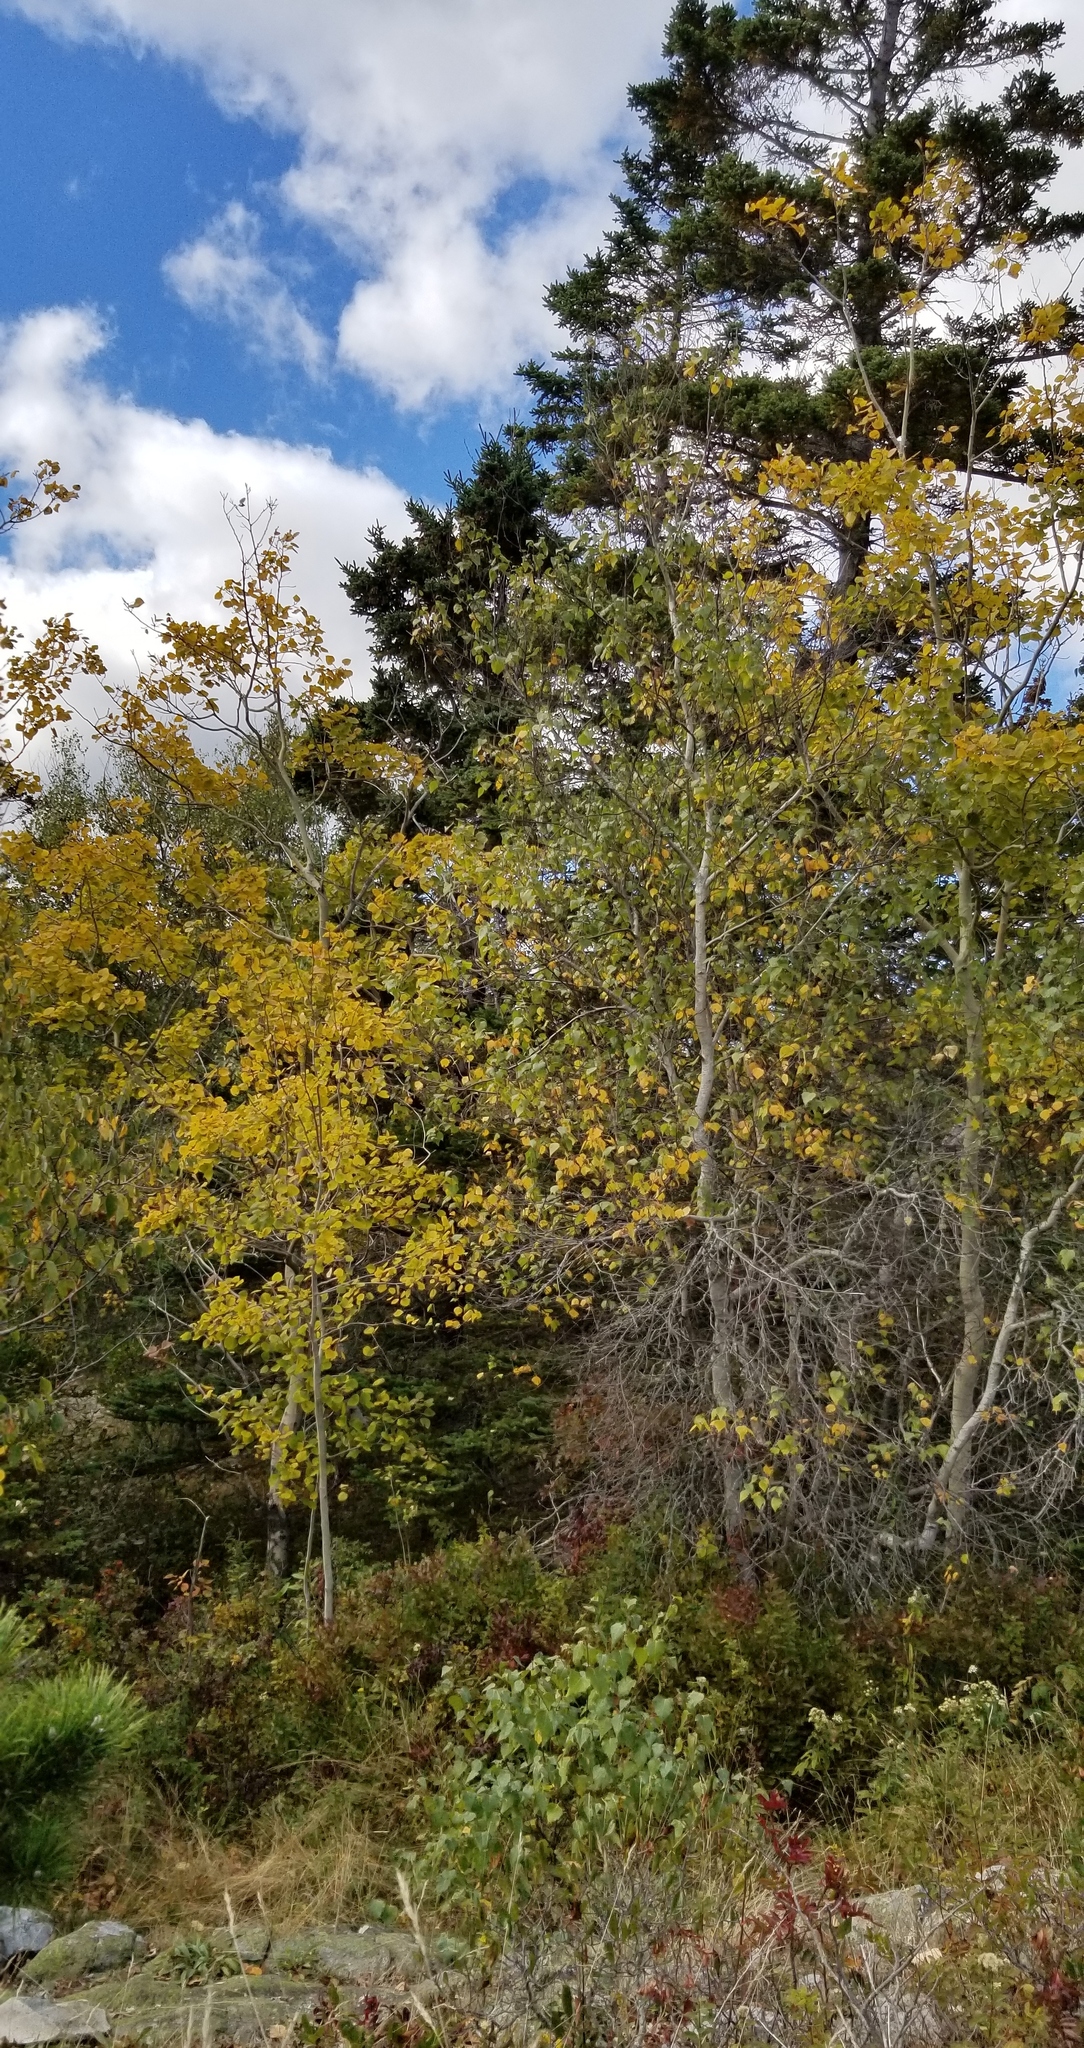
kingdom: Plantae
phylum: Tracheophyta
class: Magnoliopsida
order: Malpighiales
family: Salicaceae
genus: Populus
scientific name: Populus tremuloides
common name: Quaking aspen
